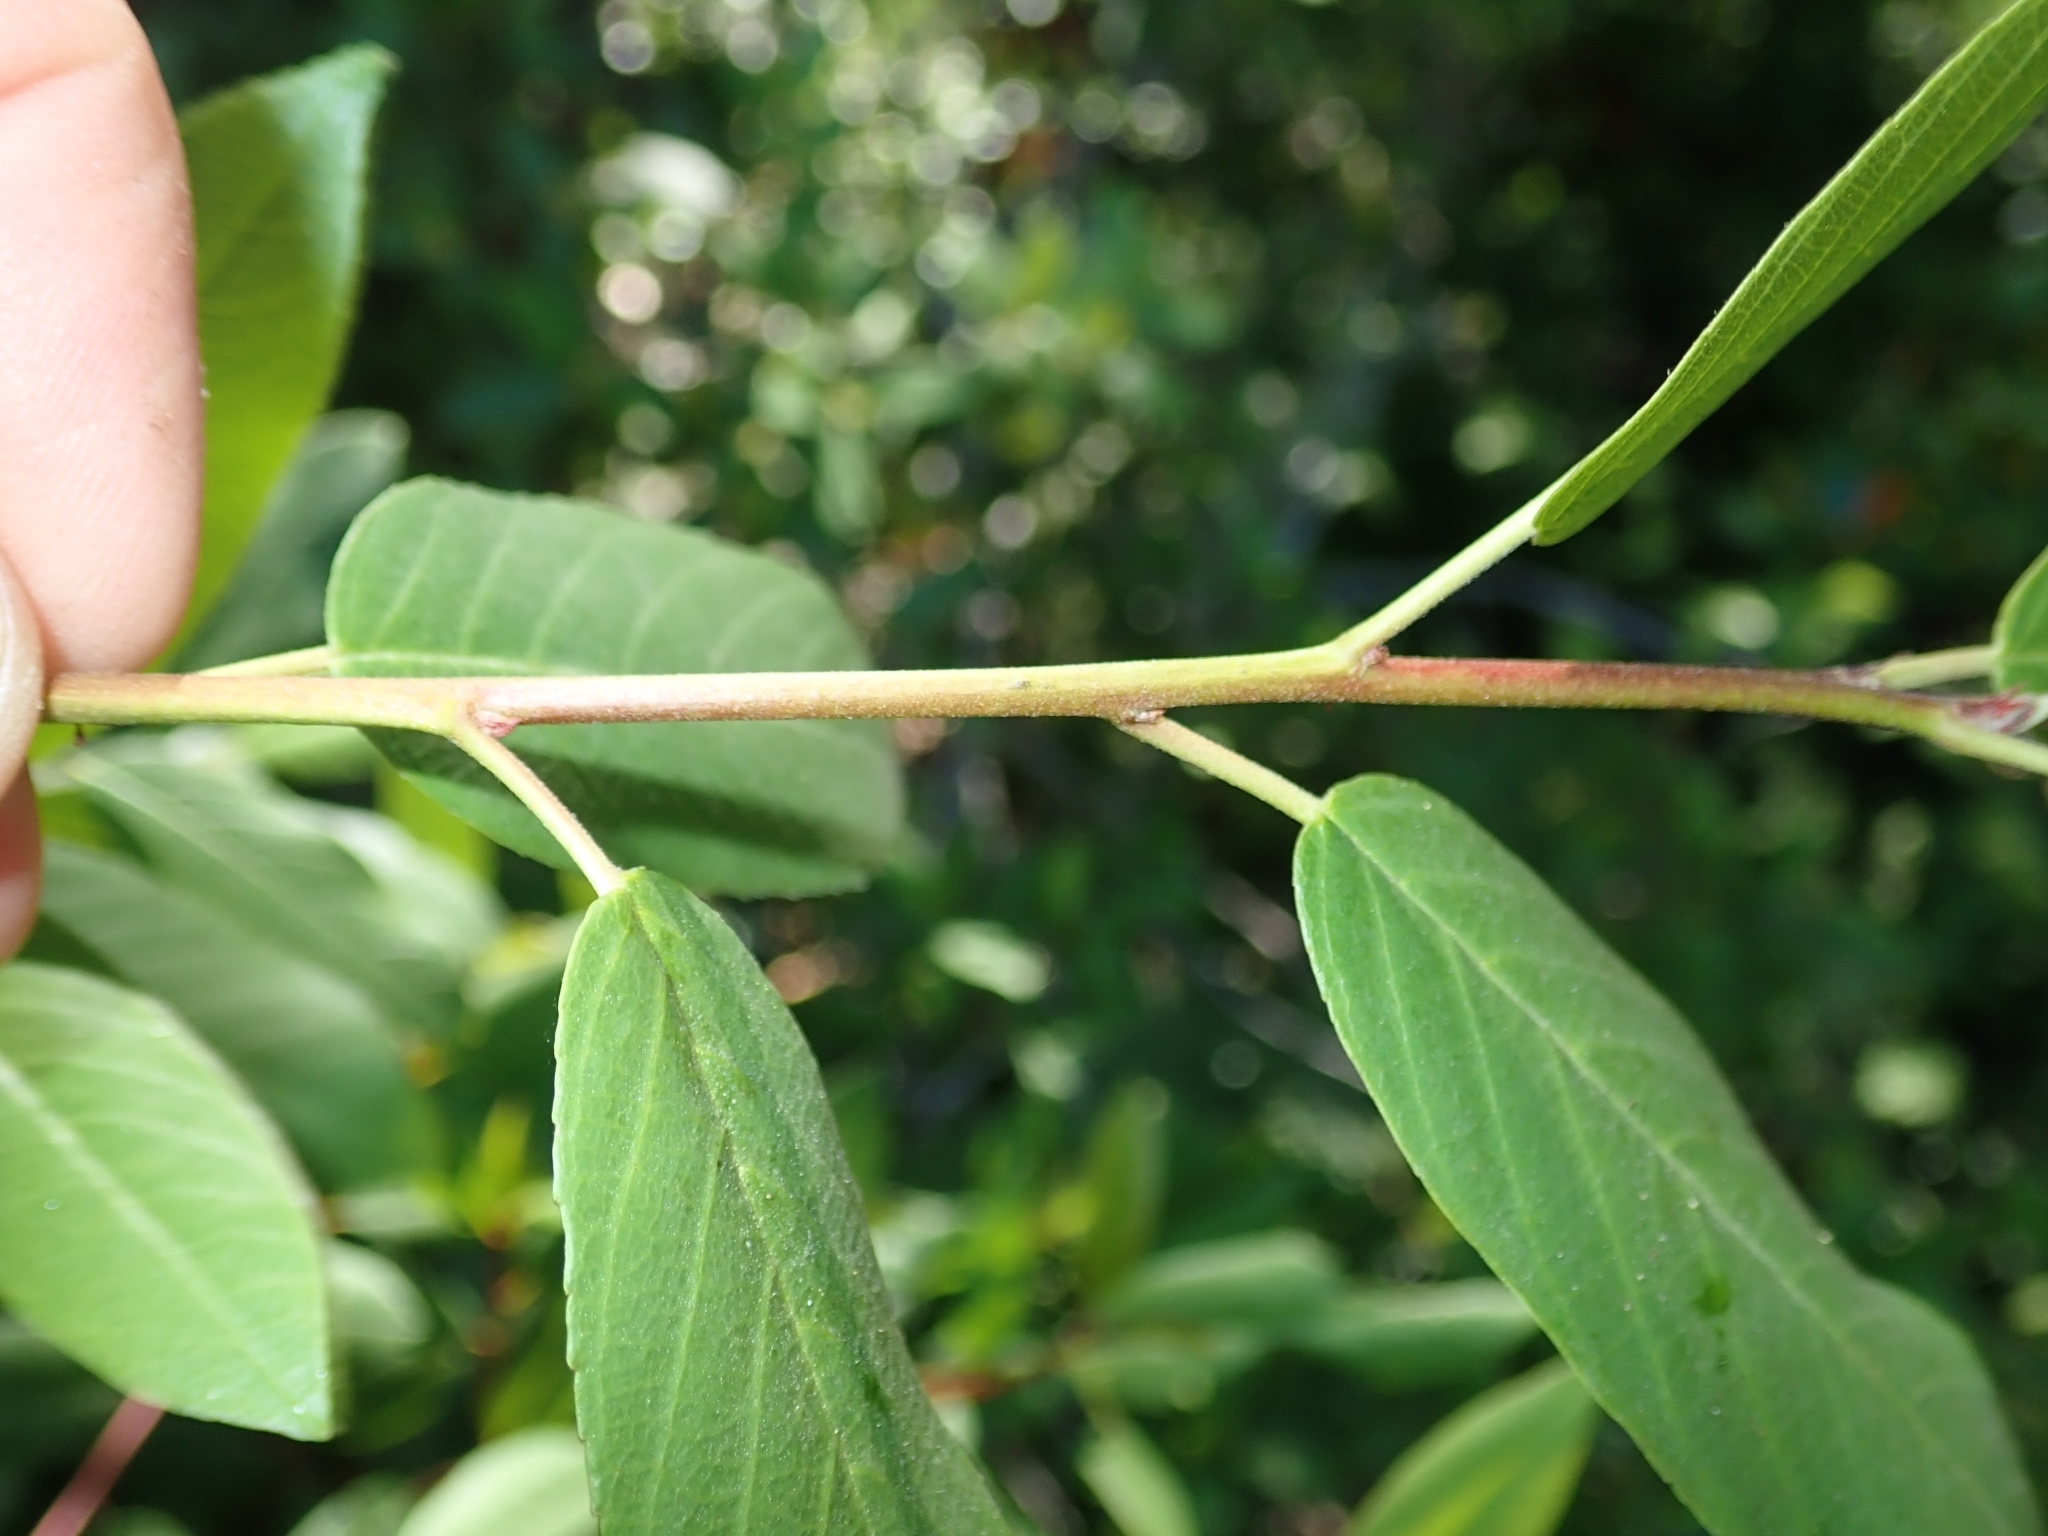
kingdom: Plantae
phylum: Tracheophyta
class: Magnoliopsida
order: Rosales
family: Rhamnaceae
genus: Frangula
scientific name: Frangula californica
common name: California buckthorn
